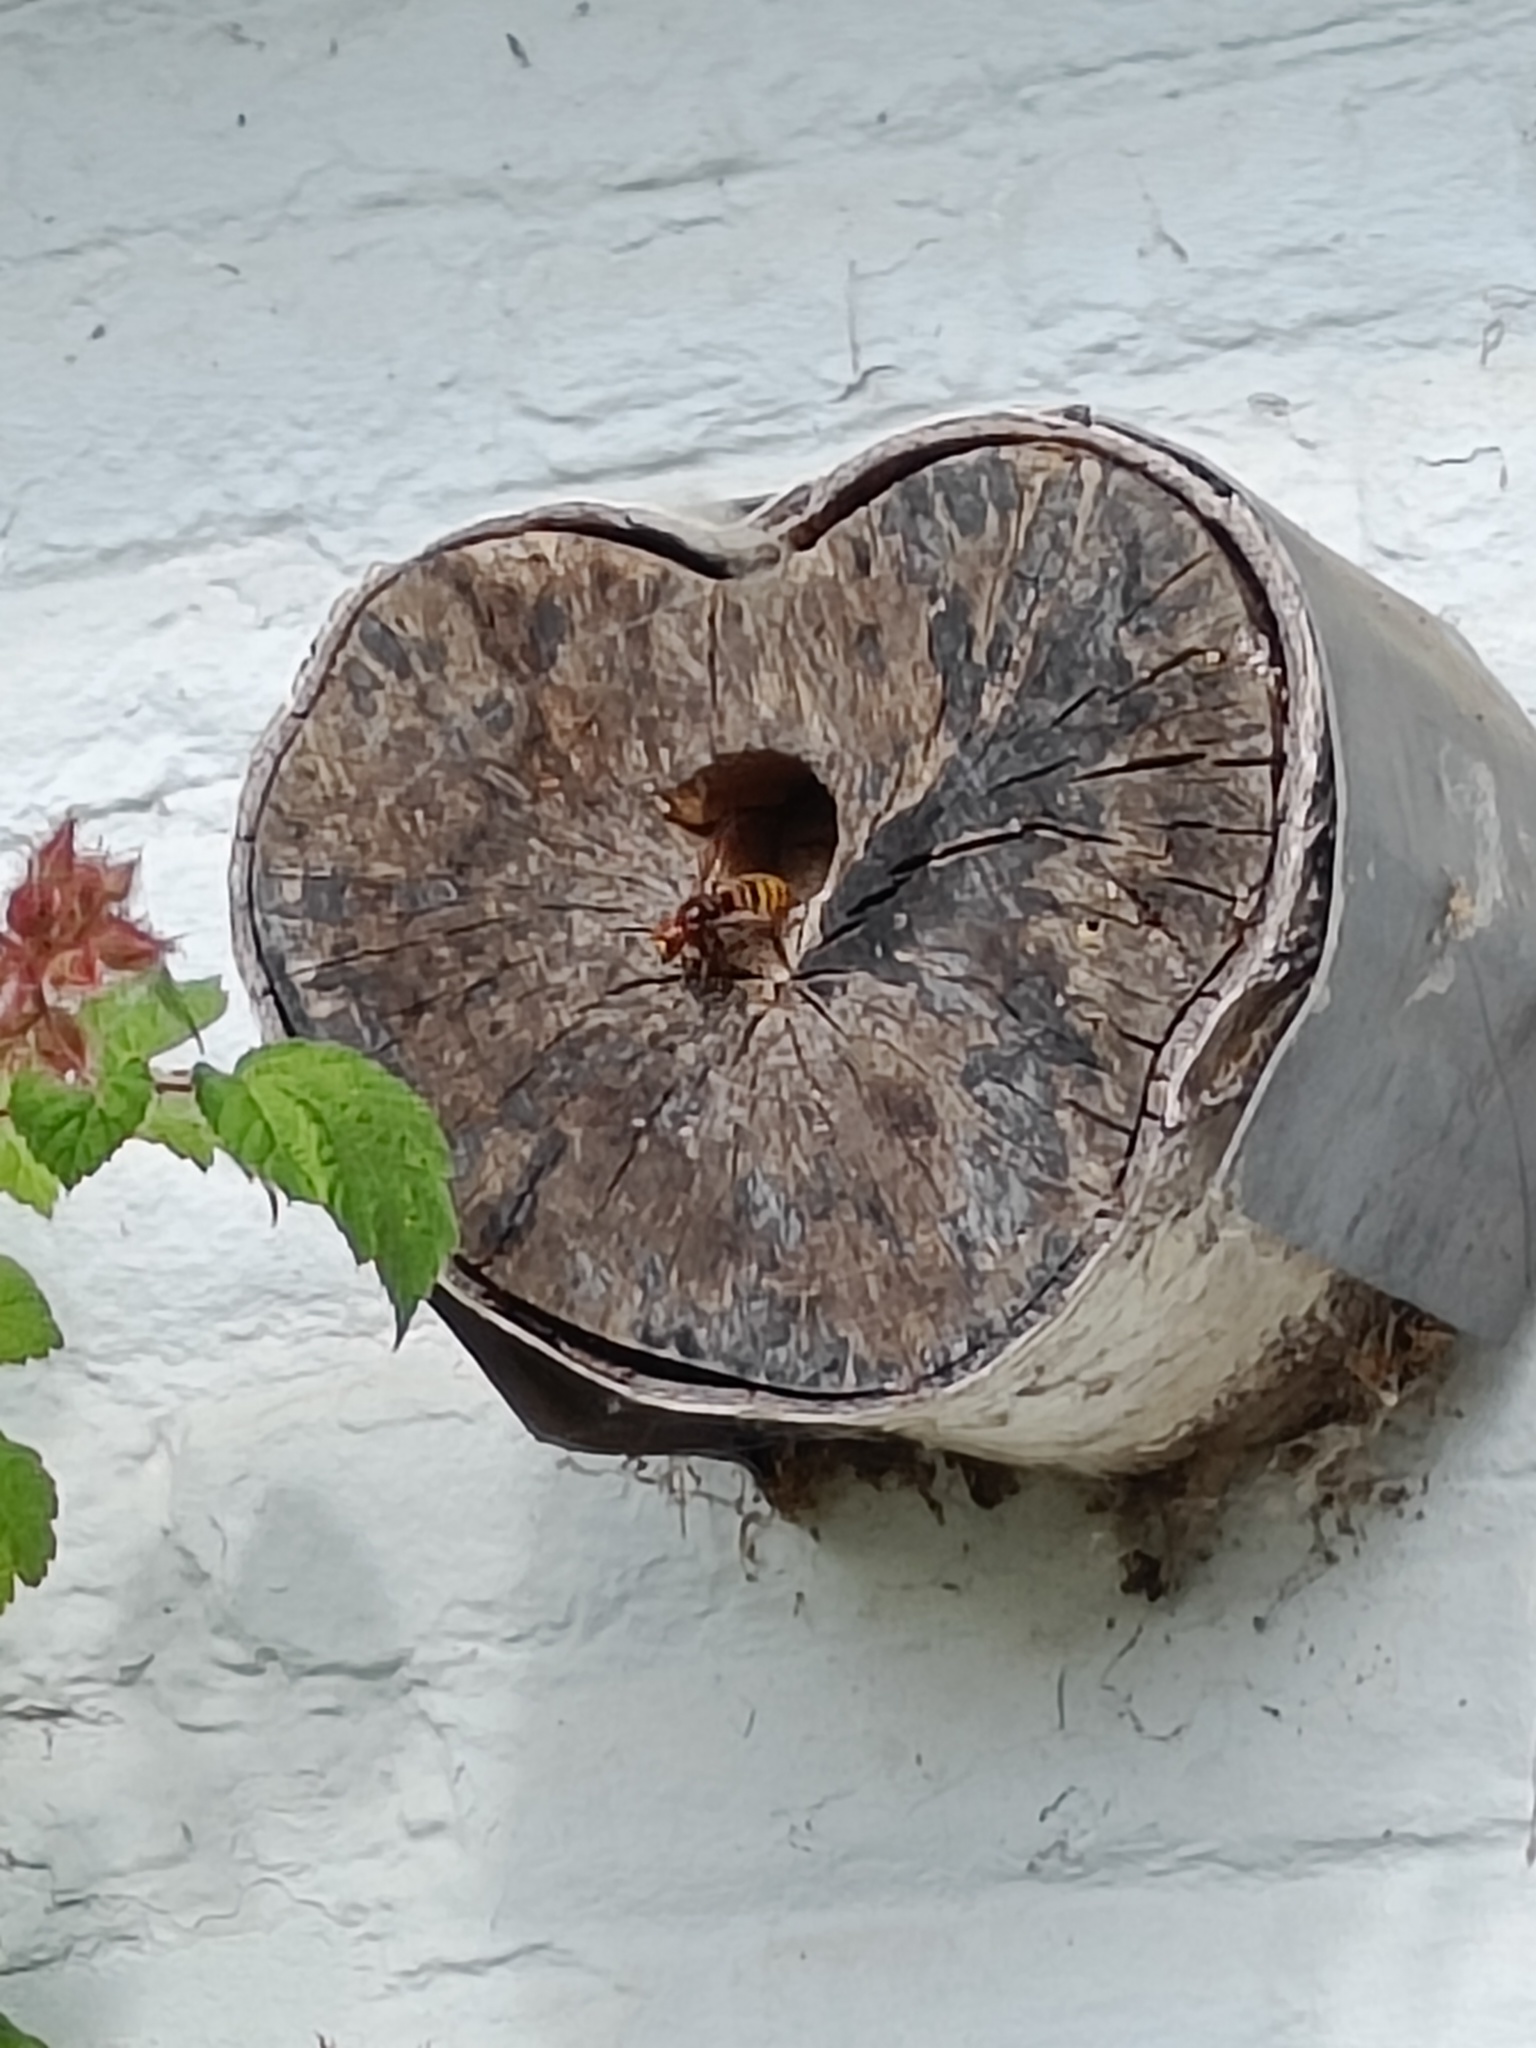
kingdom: Animalia
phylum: Arthropoda
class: Insecta
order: Hymenoptera
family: Vespidae
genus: Vespa
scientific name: Vespa crabro
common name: Hornet
